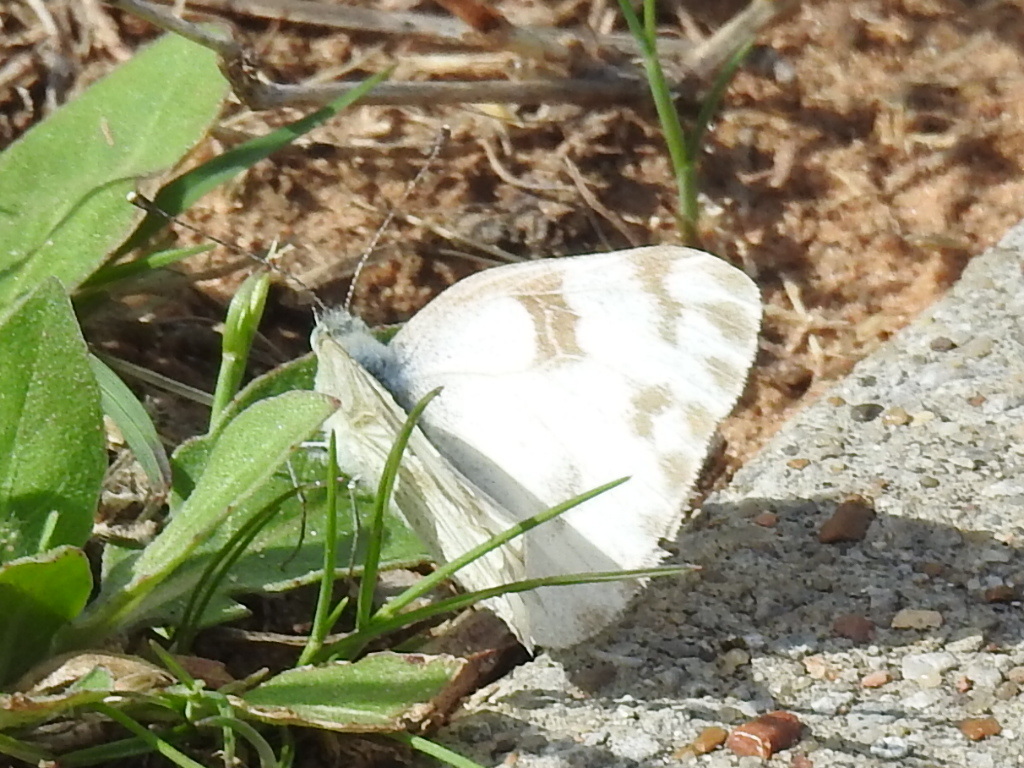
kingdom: Animalia
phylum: Arthropoda
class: Insecta
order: Lepidoptera
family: Pieridae
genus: Pontia
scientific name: Pontia protodice
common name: Checkered white
